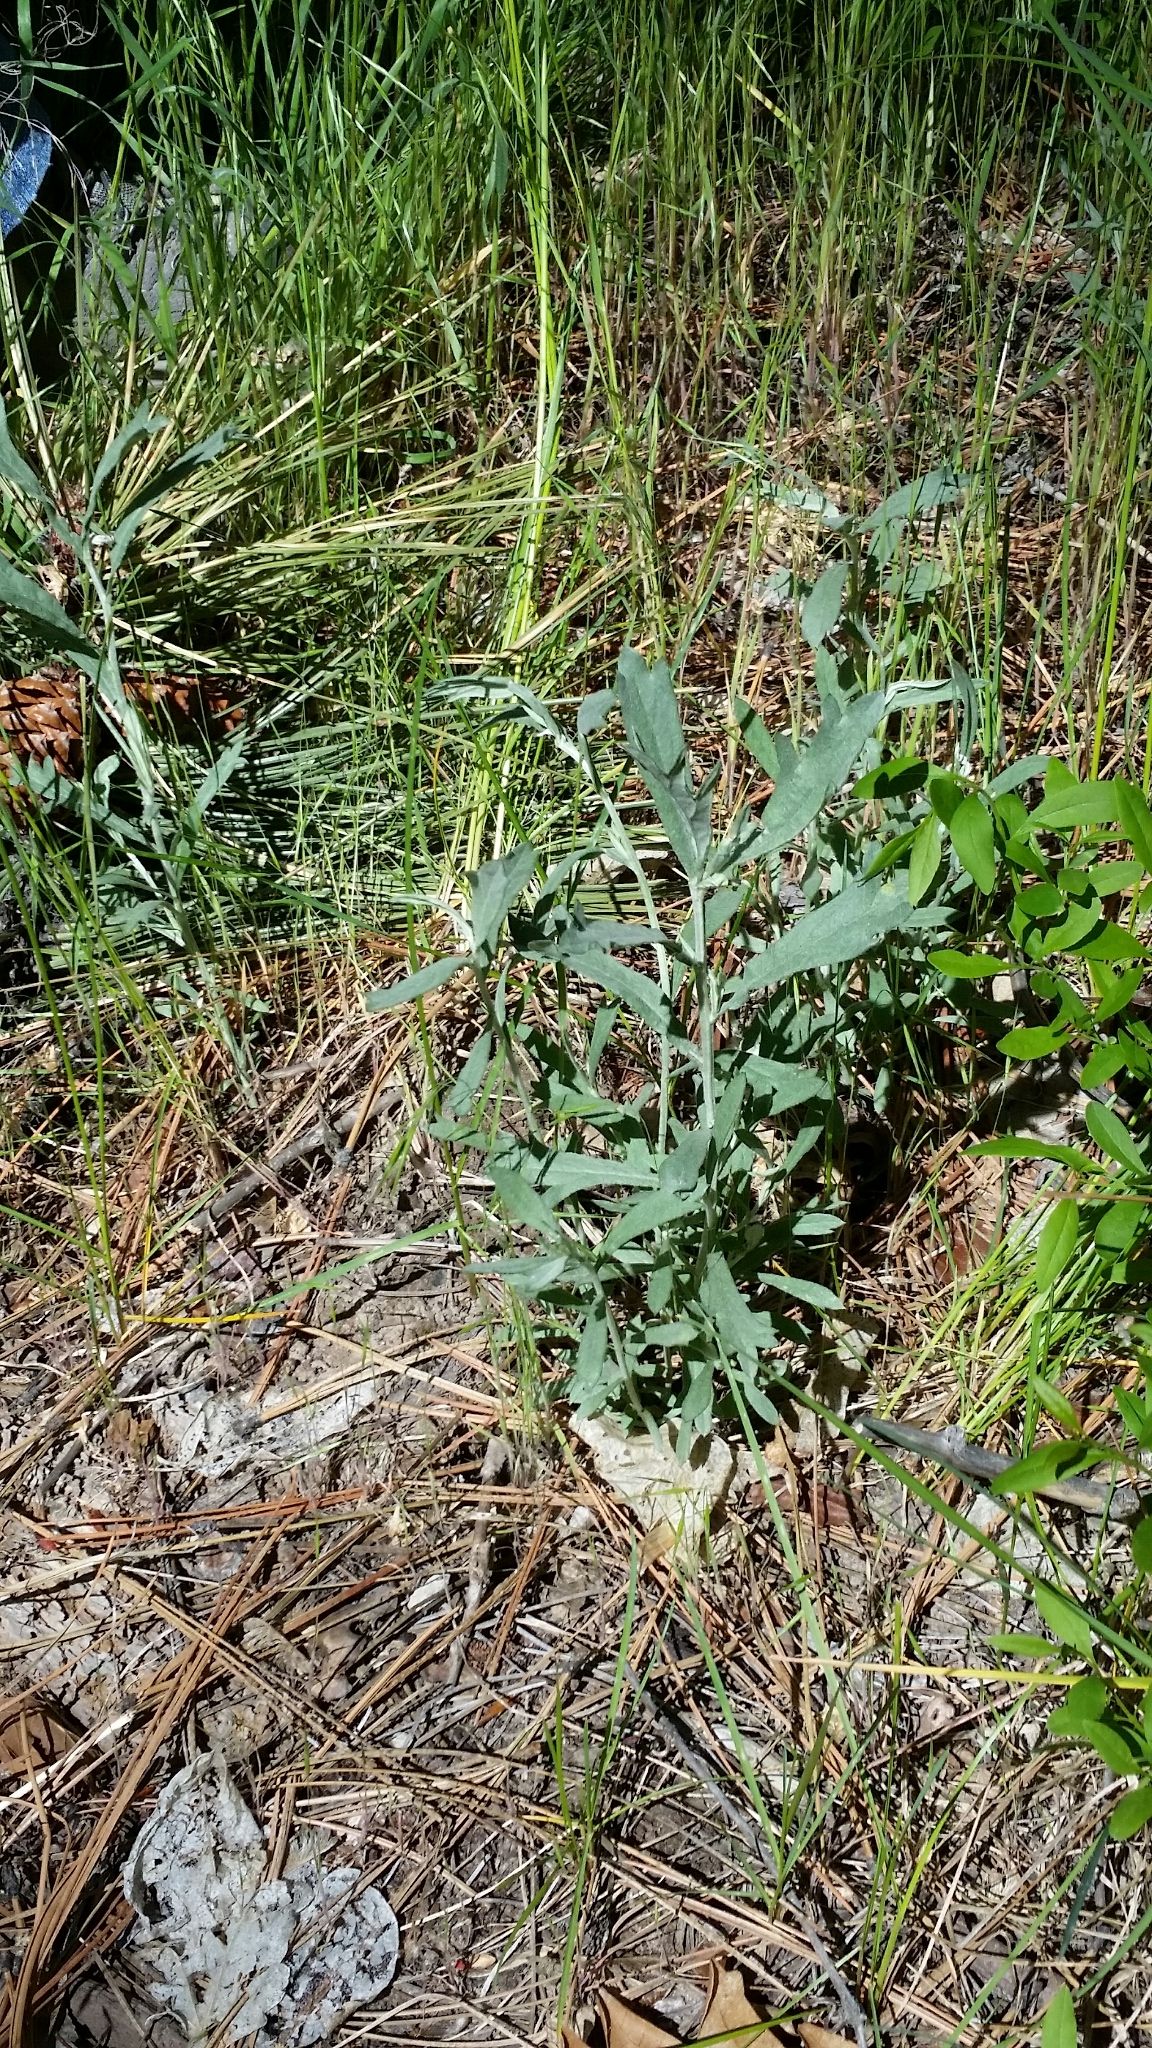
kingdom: Plantae
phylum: Tracheophyta
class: Magnoliopsida
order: Asterales
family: Asteraceae
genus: Artemisia
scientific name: Artemisia ludoviciana
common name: Western mugwort
